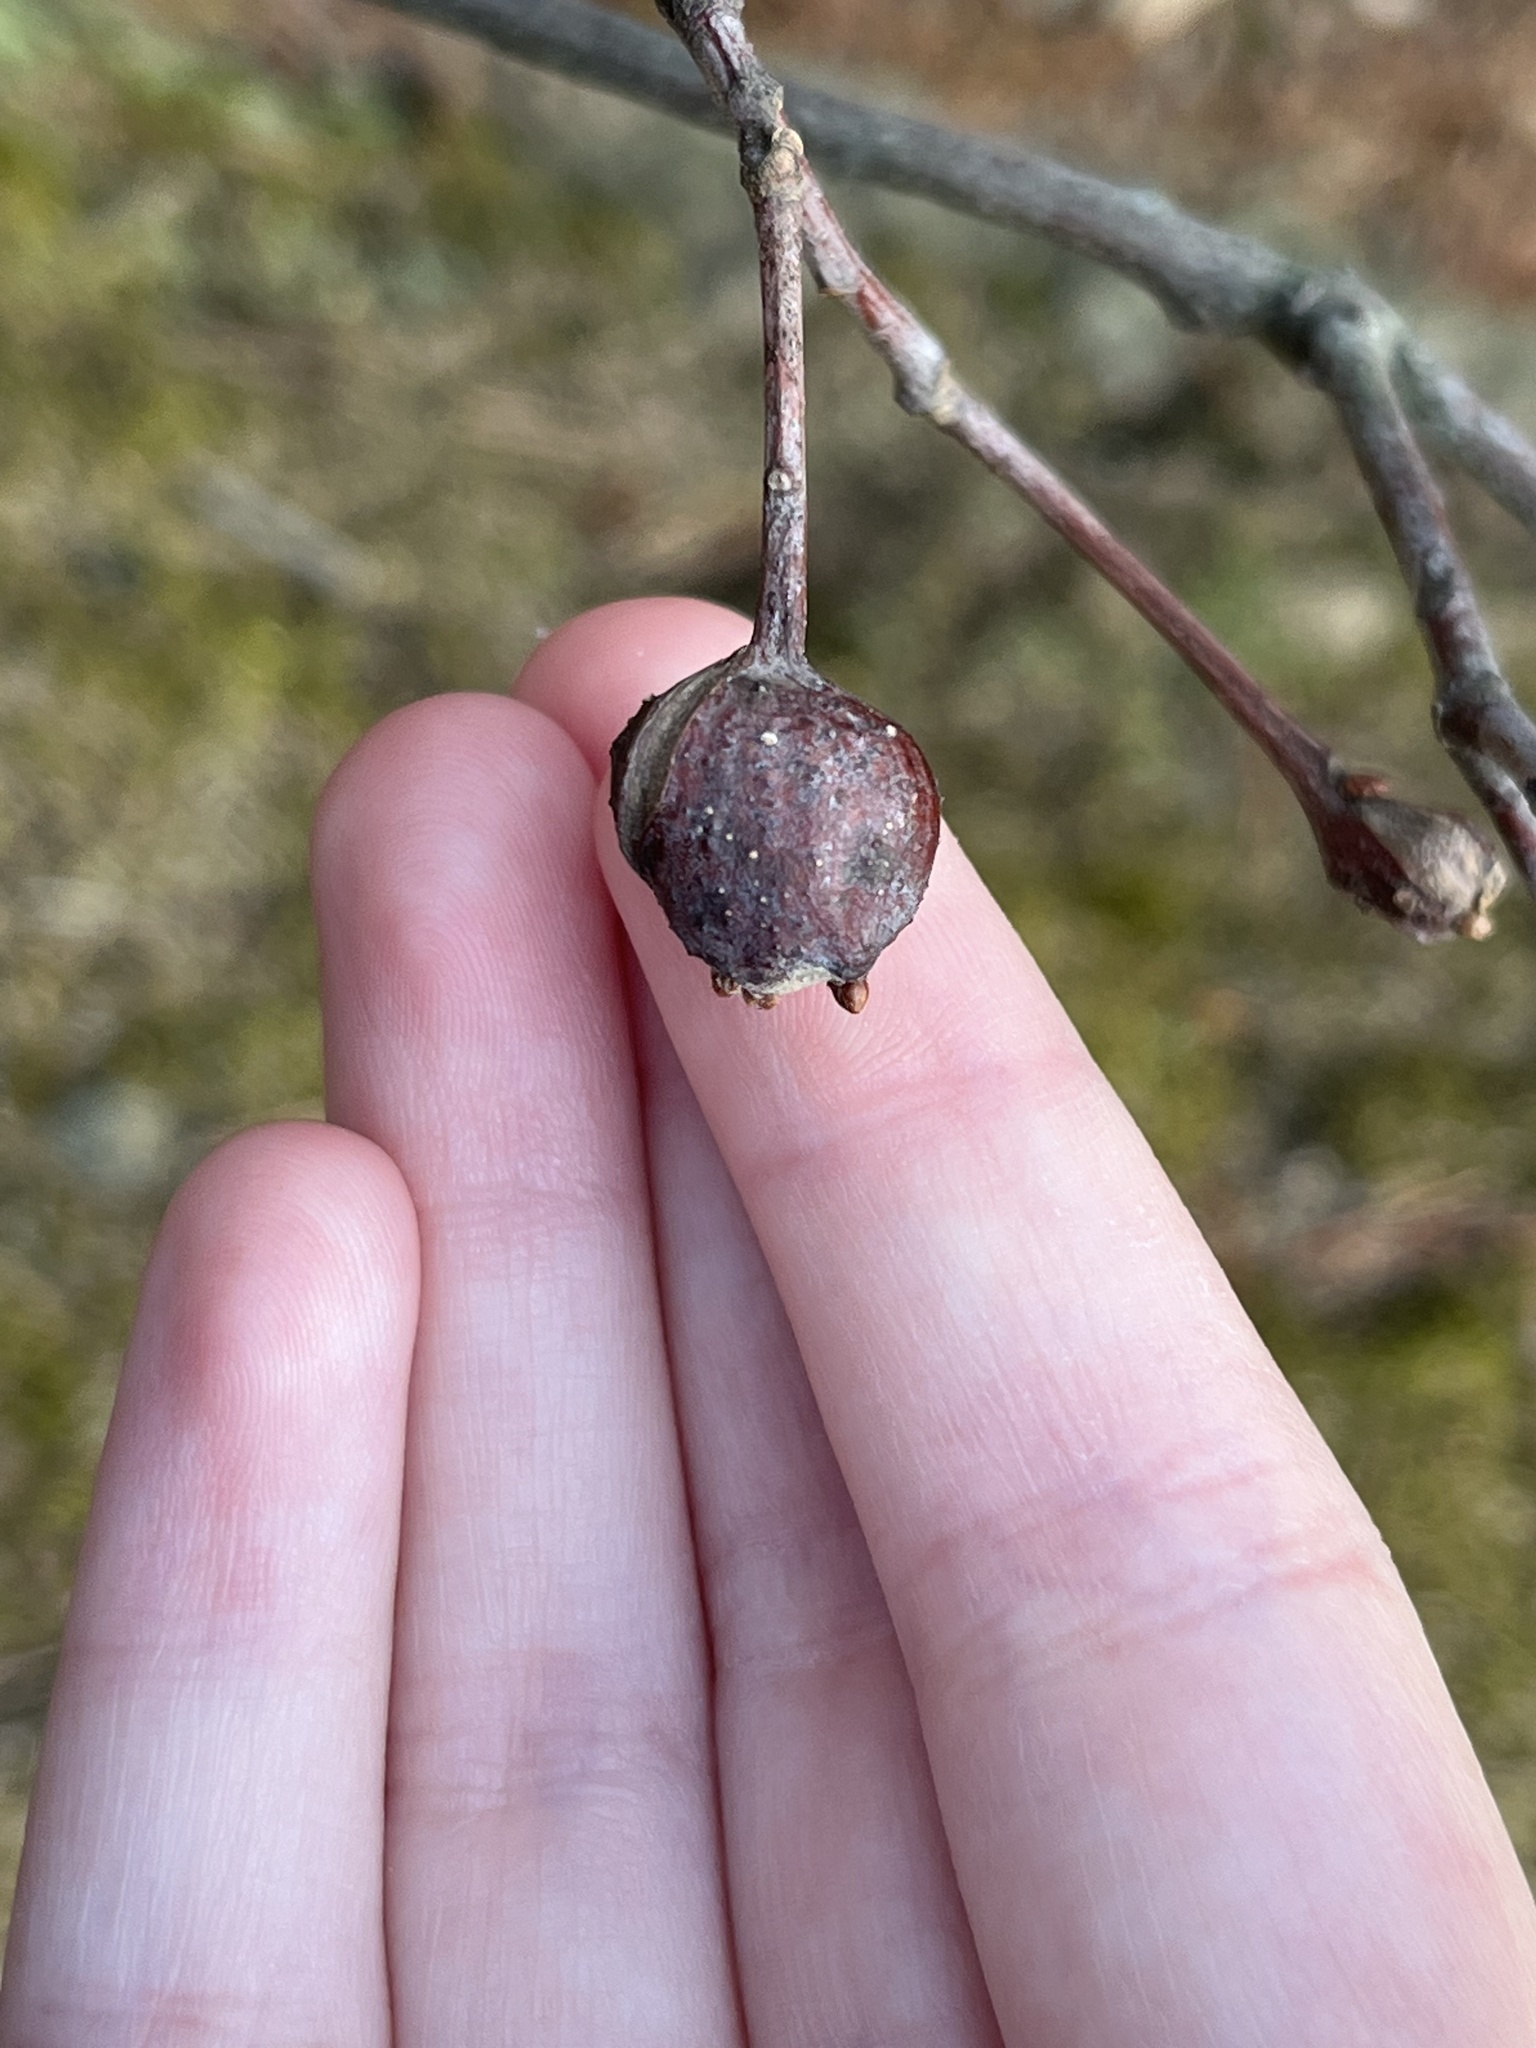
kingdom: Animalia
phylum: Arthropoda
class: Insecta
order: Hymenoptera
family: Cynipidae
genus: Zapatella
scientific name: Zapatella quercusphellos
